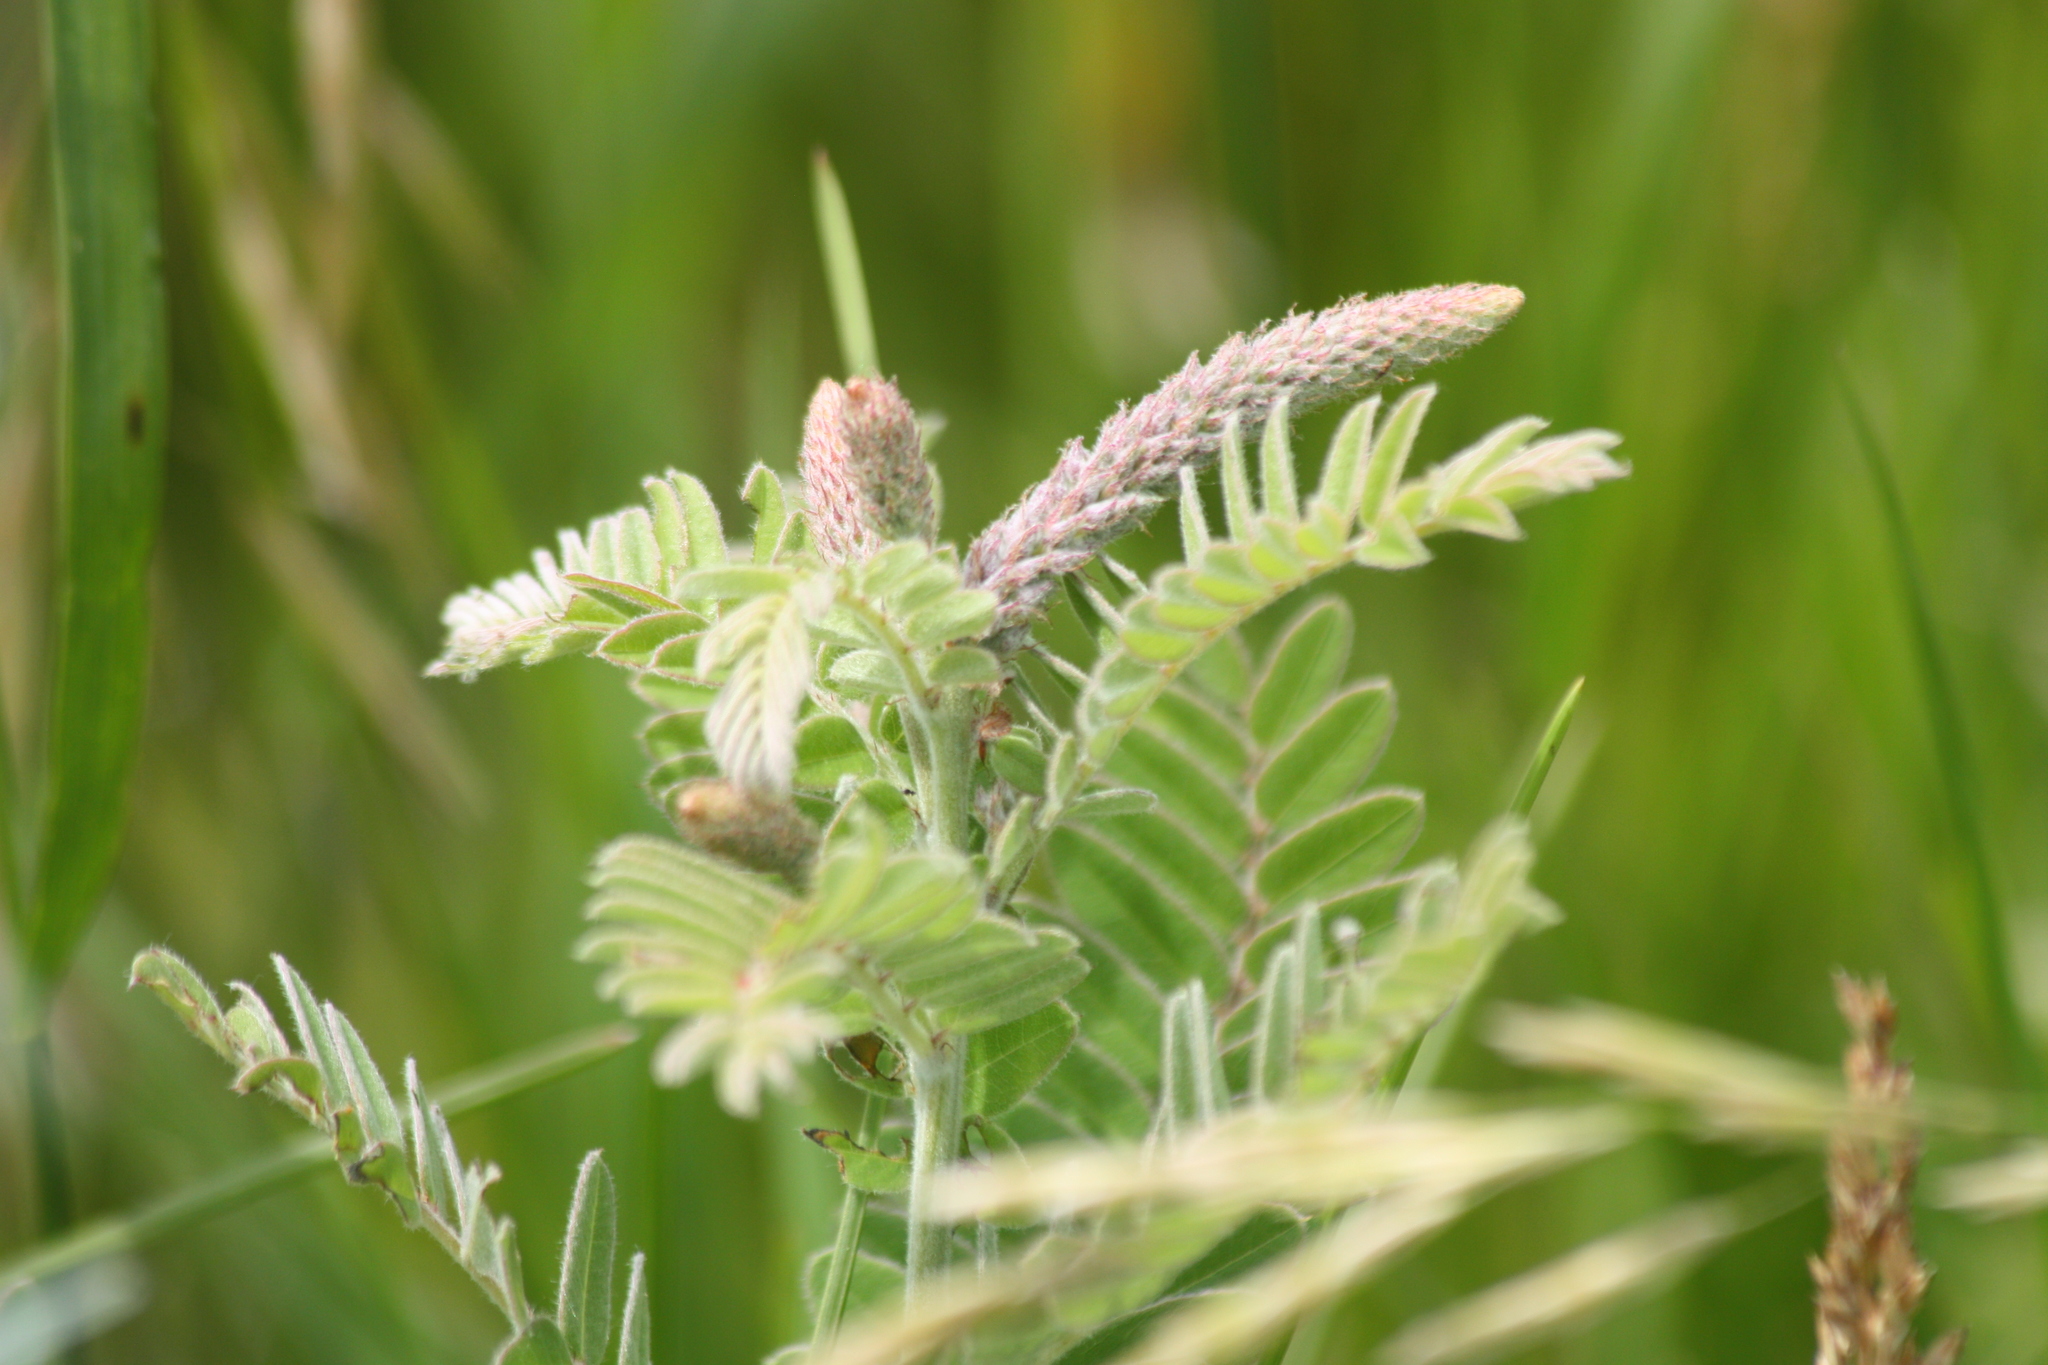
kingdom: Plantae
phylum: Tracheophyta
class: Magnoliopsida
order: Fabales
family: Fabaceae
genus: Amorpha
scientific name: Amorpha canescens
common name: Leadplant
